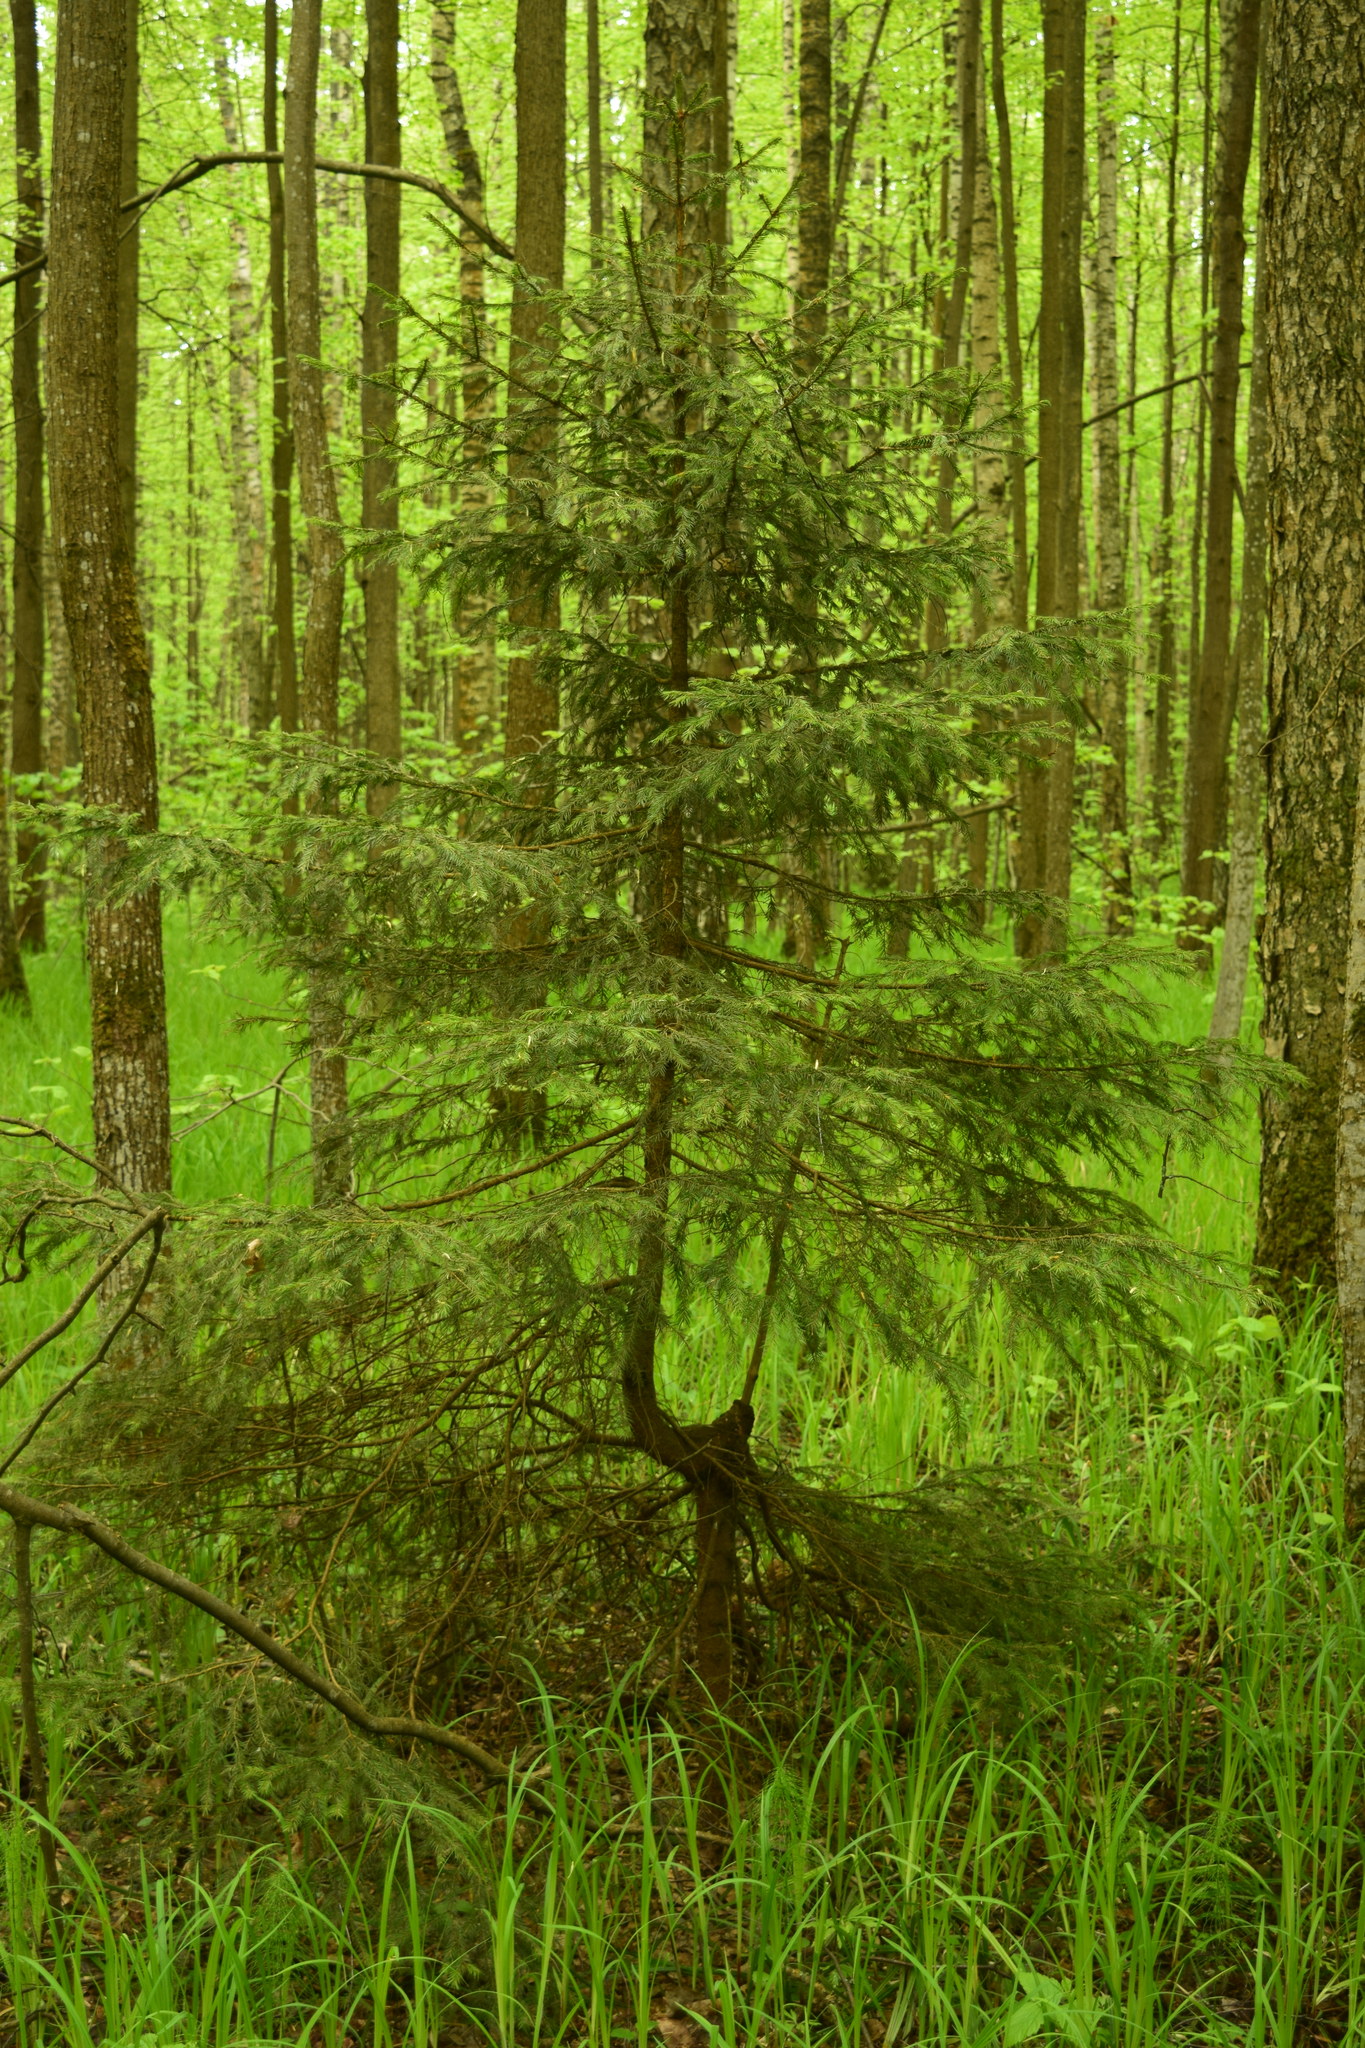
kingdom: Plantae
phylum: Tracheophyta
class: Pinopsida
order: Pinales
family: Pinaceae
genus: Picea
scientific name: Picea abies
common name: Norway spruce
